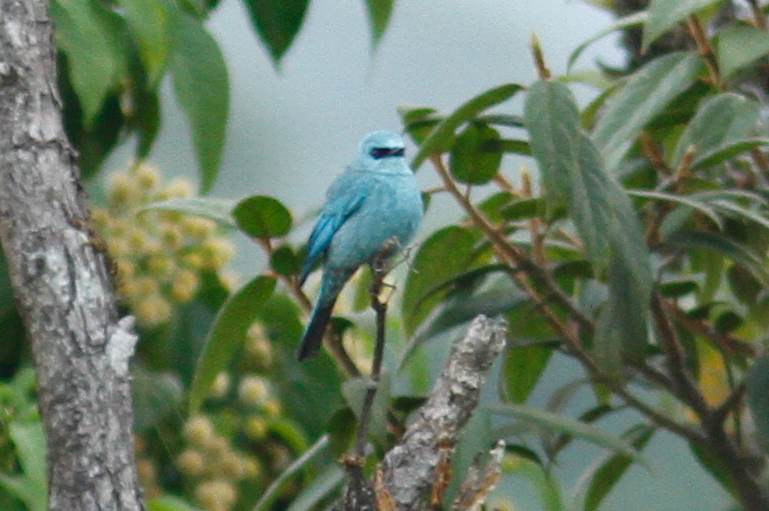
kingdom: Animalia
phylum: Chordata
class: Aves
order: Passeriformes
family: Muscicapidae
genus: Eumyias
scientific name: Eumyias thalassinus
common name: Verditer flycatcher
